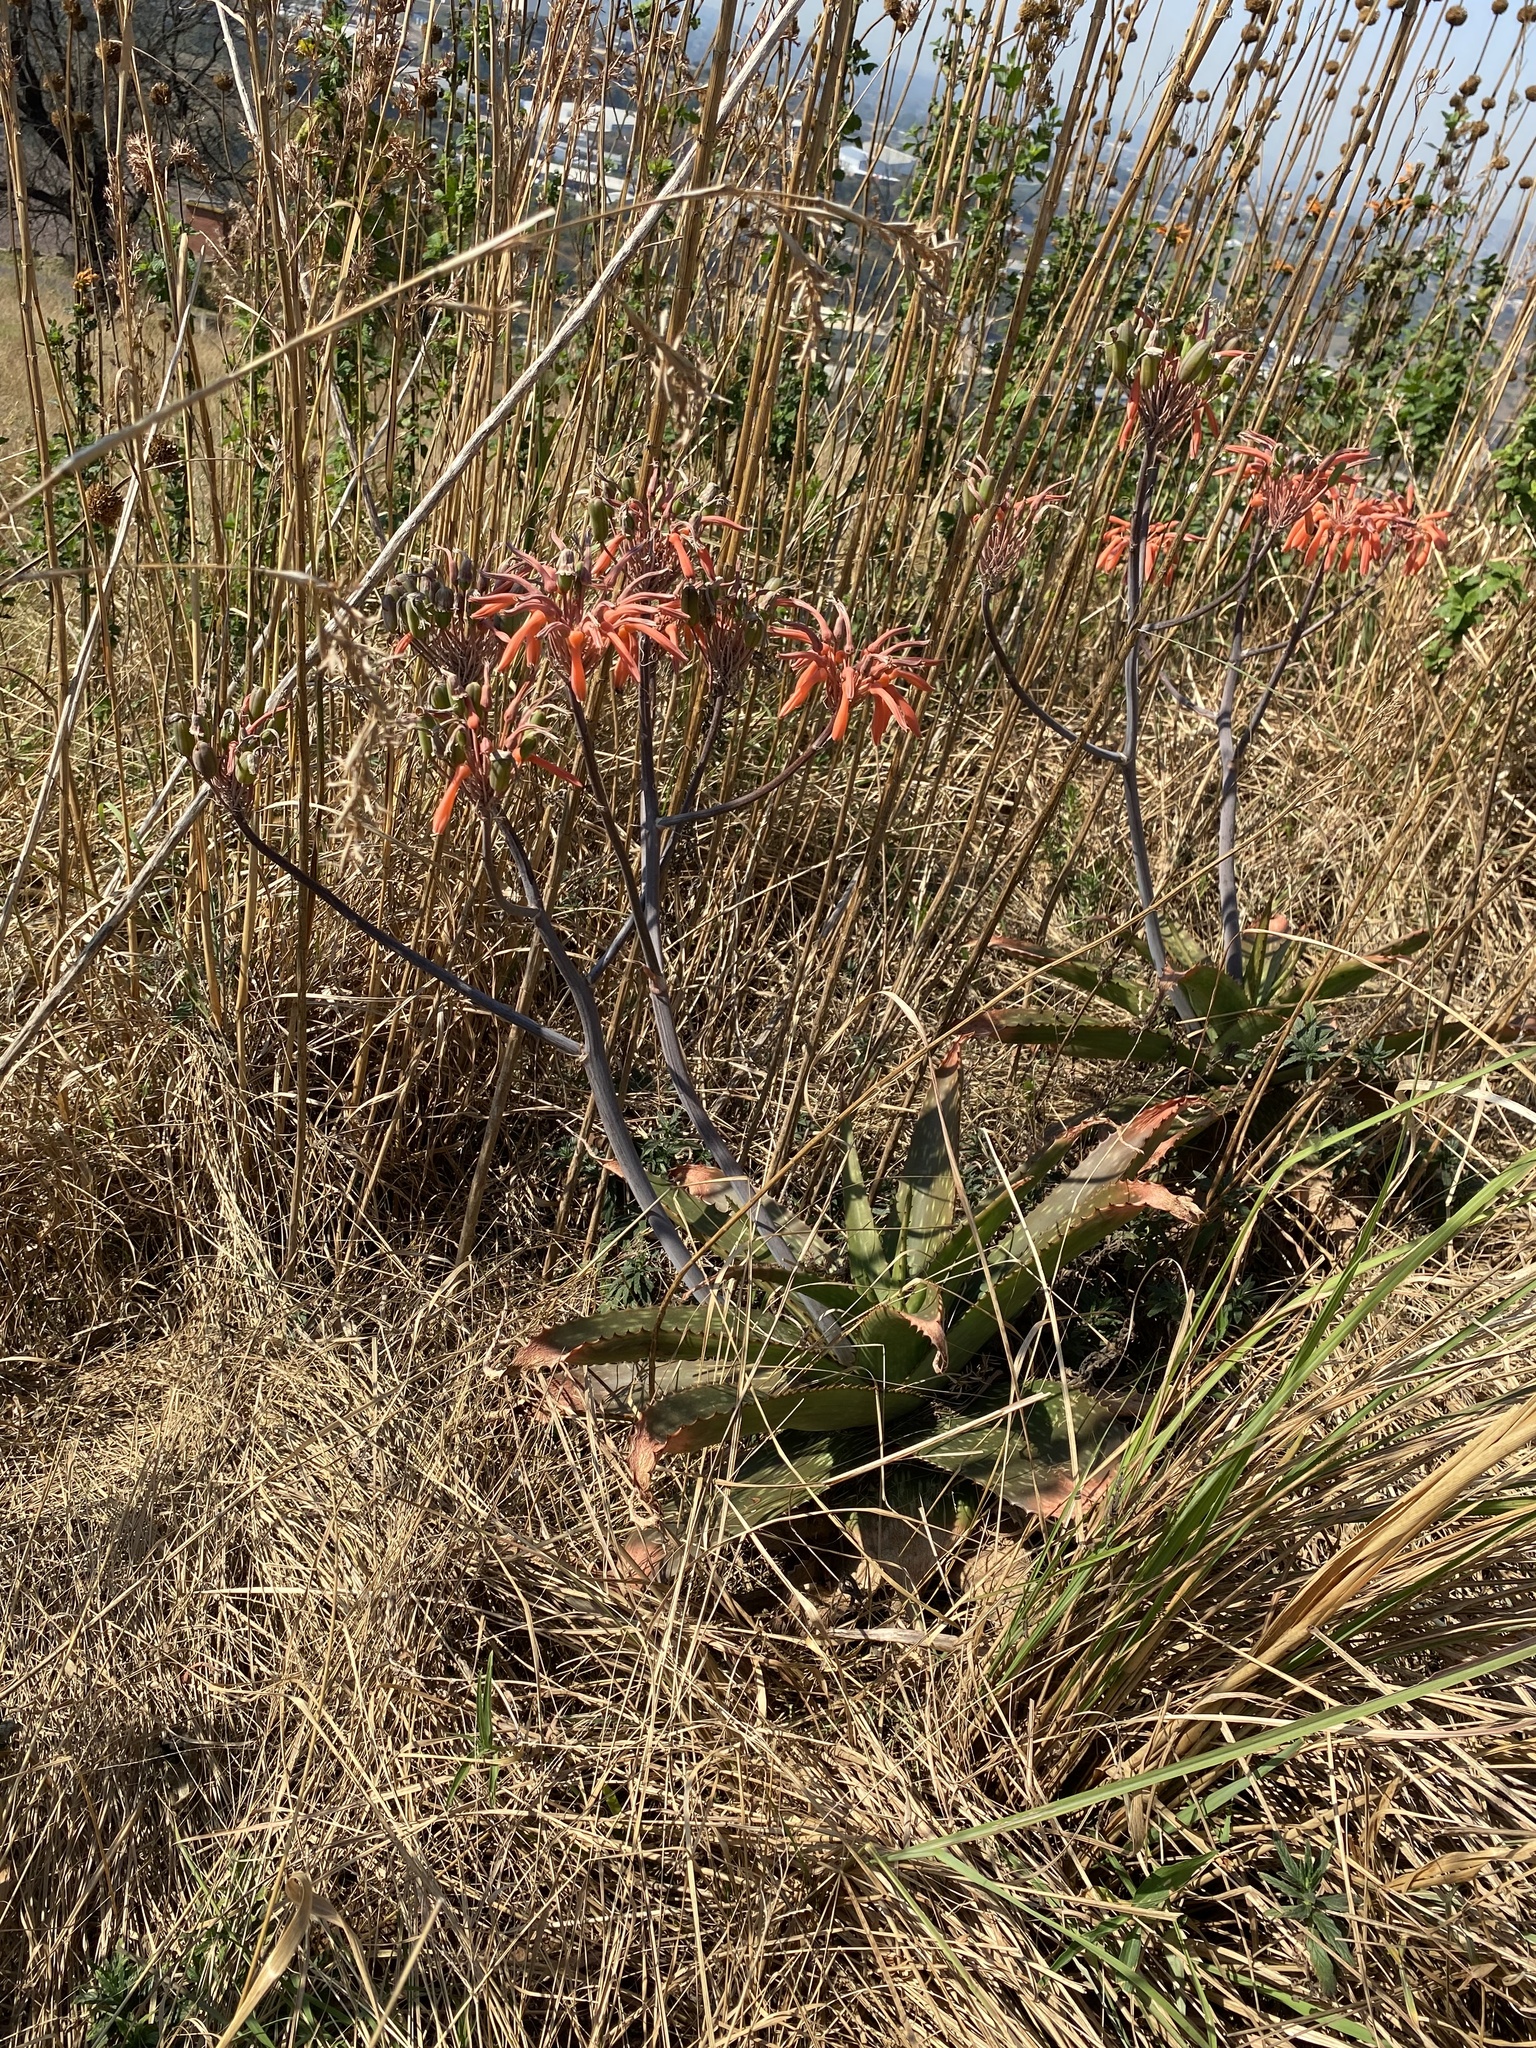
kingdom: Plantae
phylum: Tracheophyta
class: Liliopsida
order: Asparagales
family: Asphodelaceae
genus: Aloe
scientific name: Aloe maculata
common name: Broadleaf aloe
